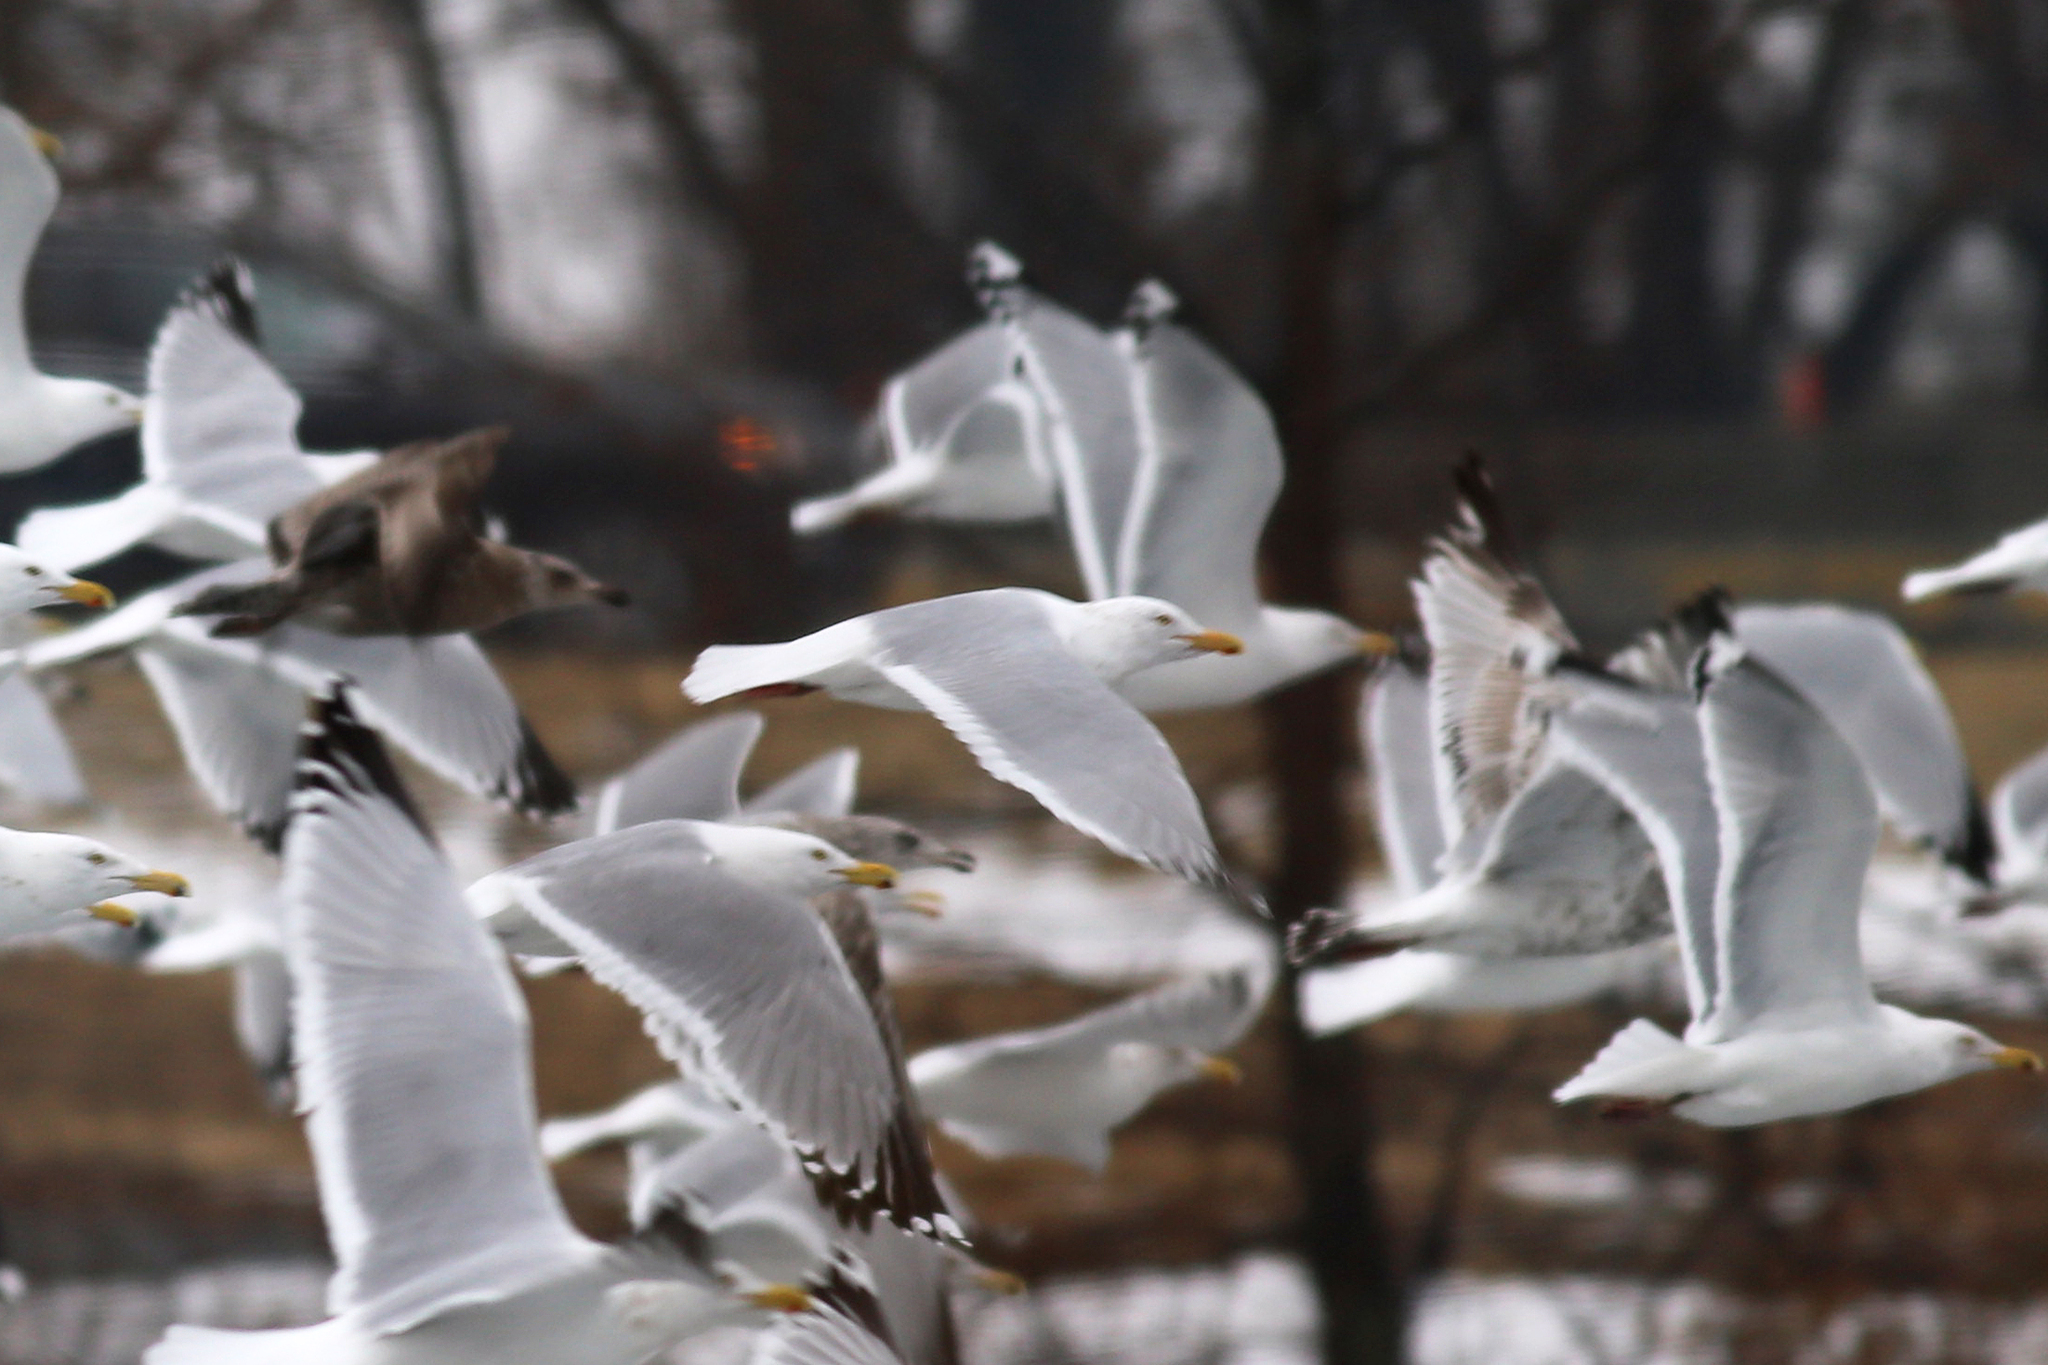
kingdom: Animalia
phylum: Chordata
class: Aves
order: Charadriiformes
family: Laridae
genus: Larus
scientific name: Larus glaucoides
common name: Iceland gull
